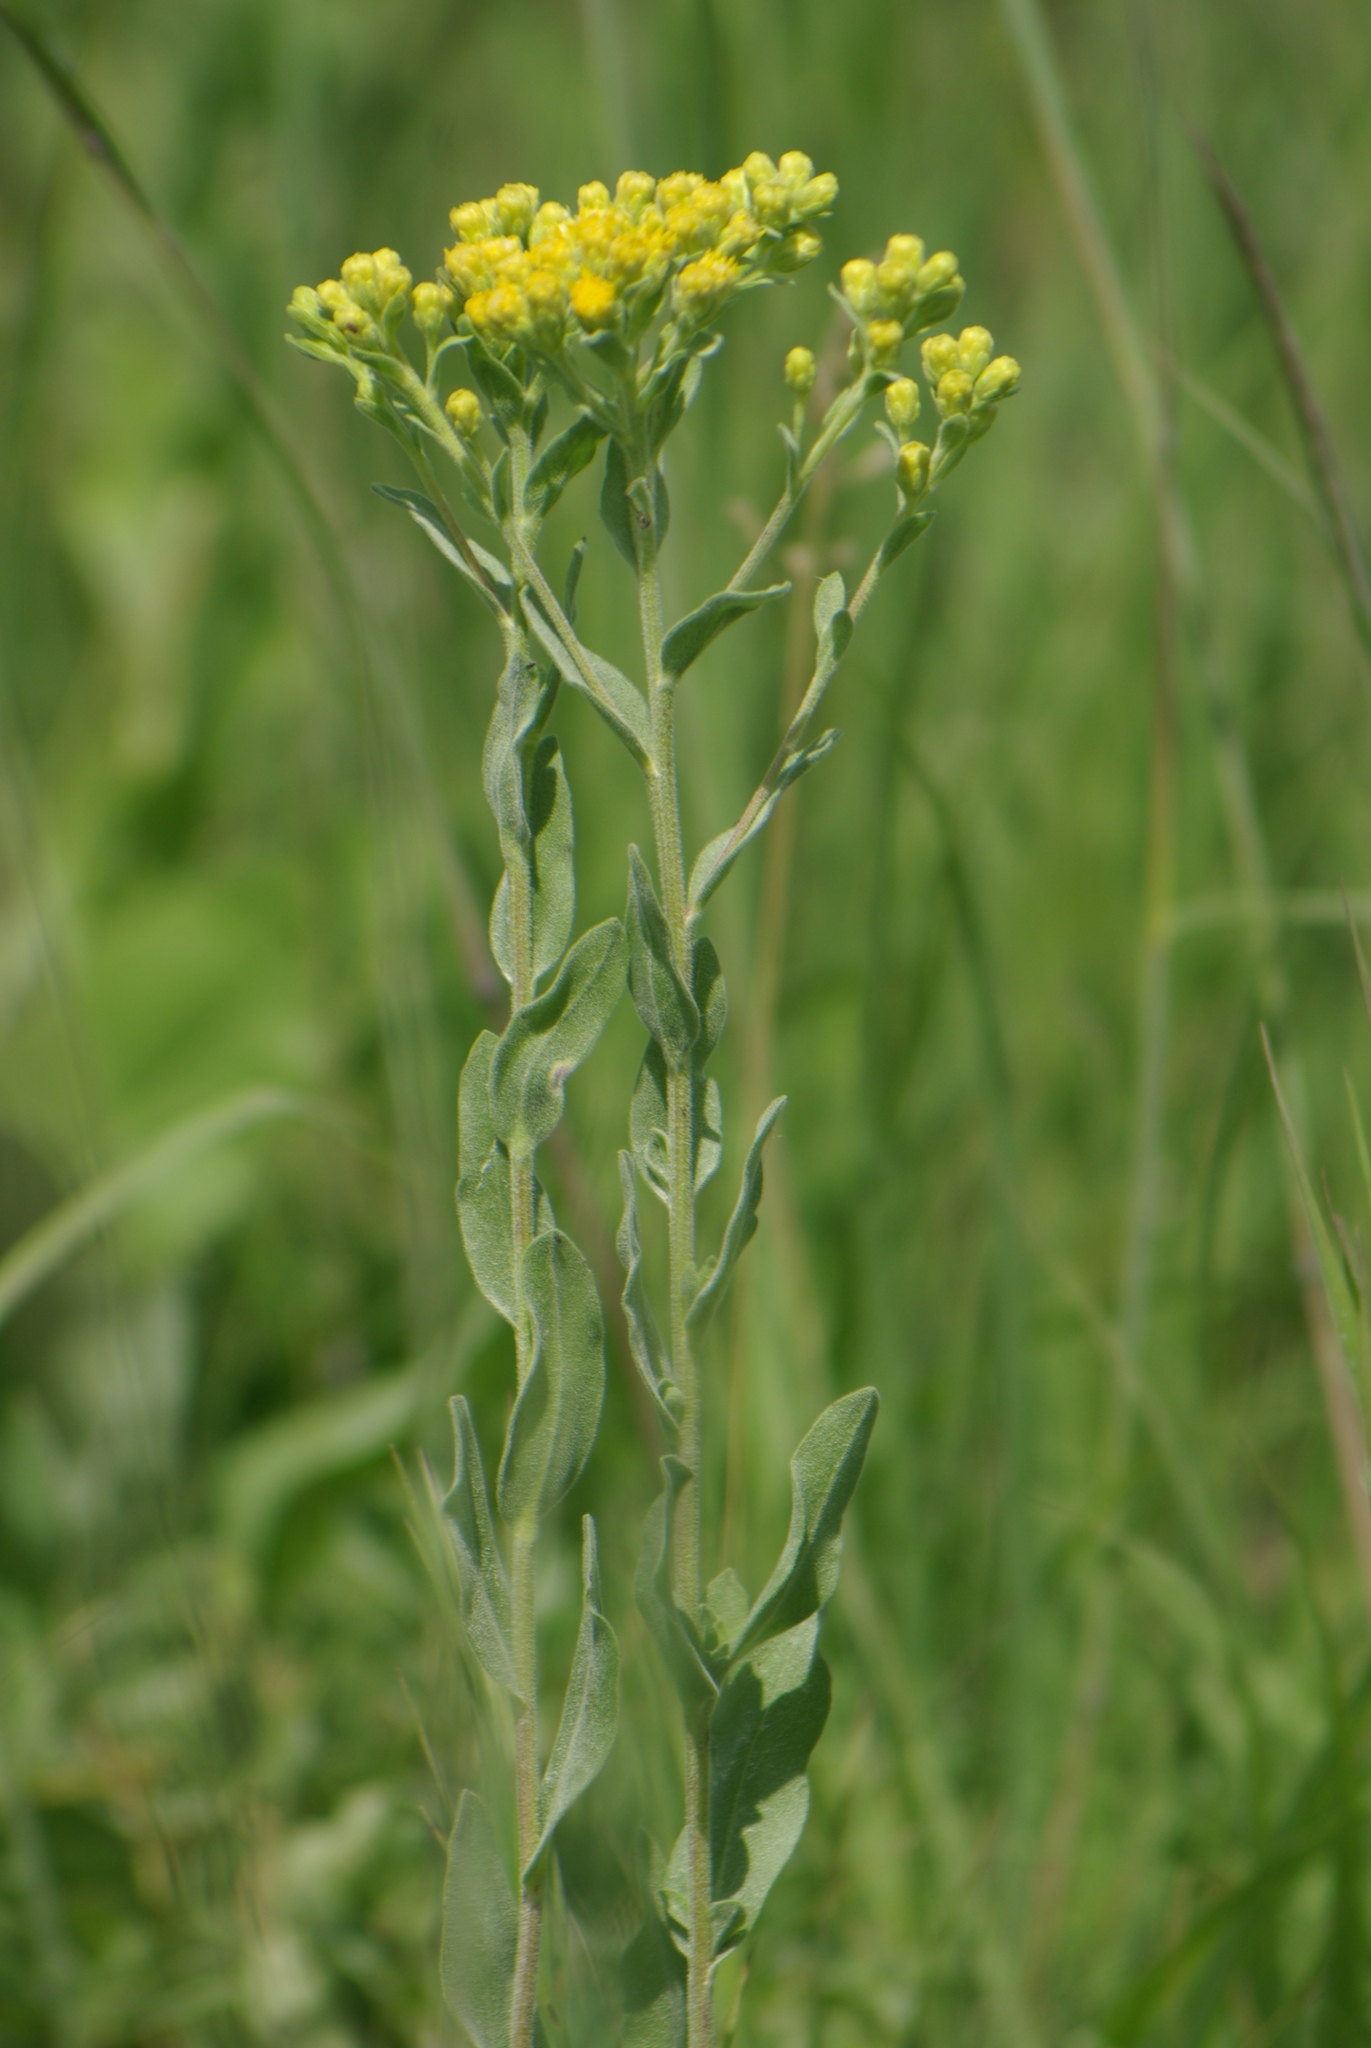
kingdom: Plantae
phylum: Tracheophyta
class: Magnoliopsida
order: Asterales
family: Asteraceae
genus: Solidago
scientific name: Solidago rigida
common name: Rigid goldenrod
